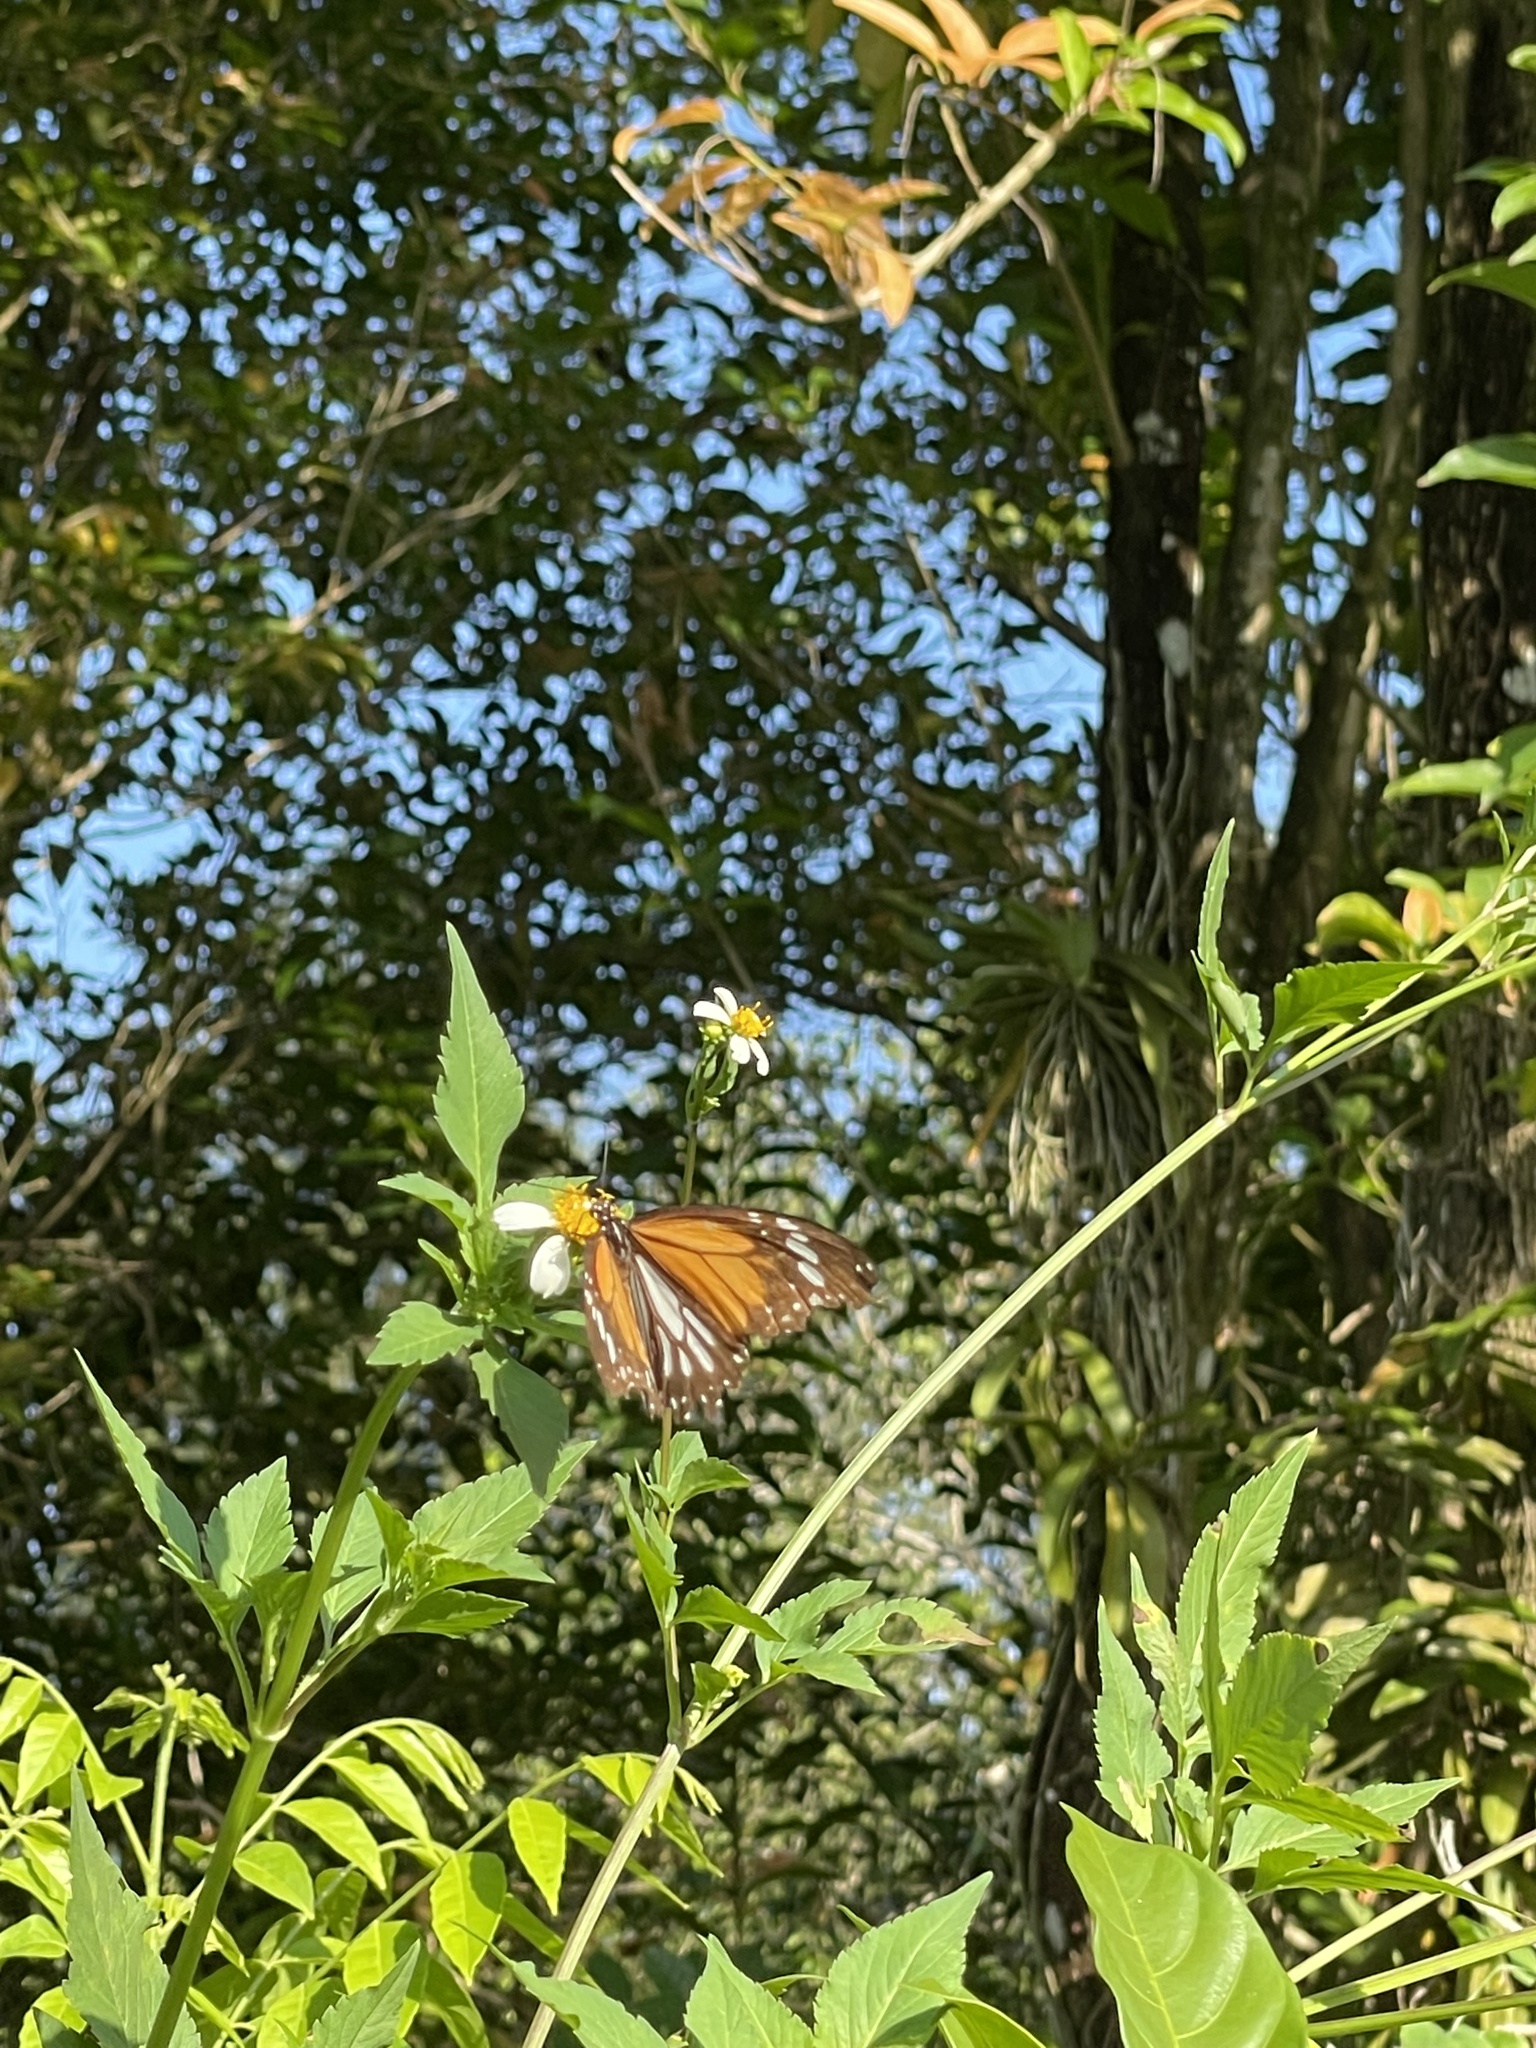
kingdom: Animalia
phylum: Arthropoda
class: Insecta
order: Lepidoptera
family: Nymphalidae
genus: Danaus
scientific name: Danaus genutia
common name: Common tiger butterfly
